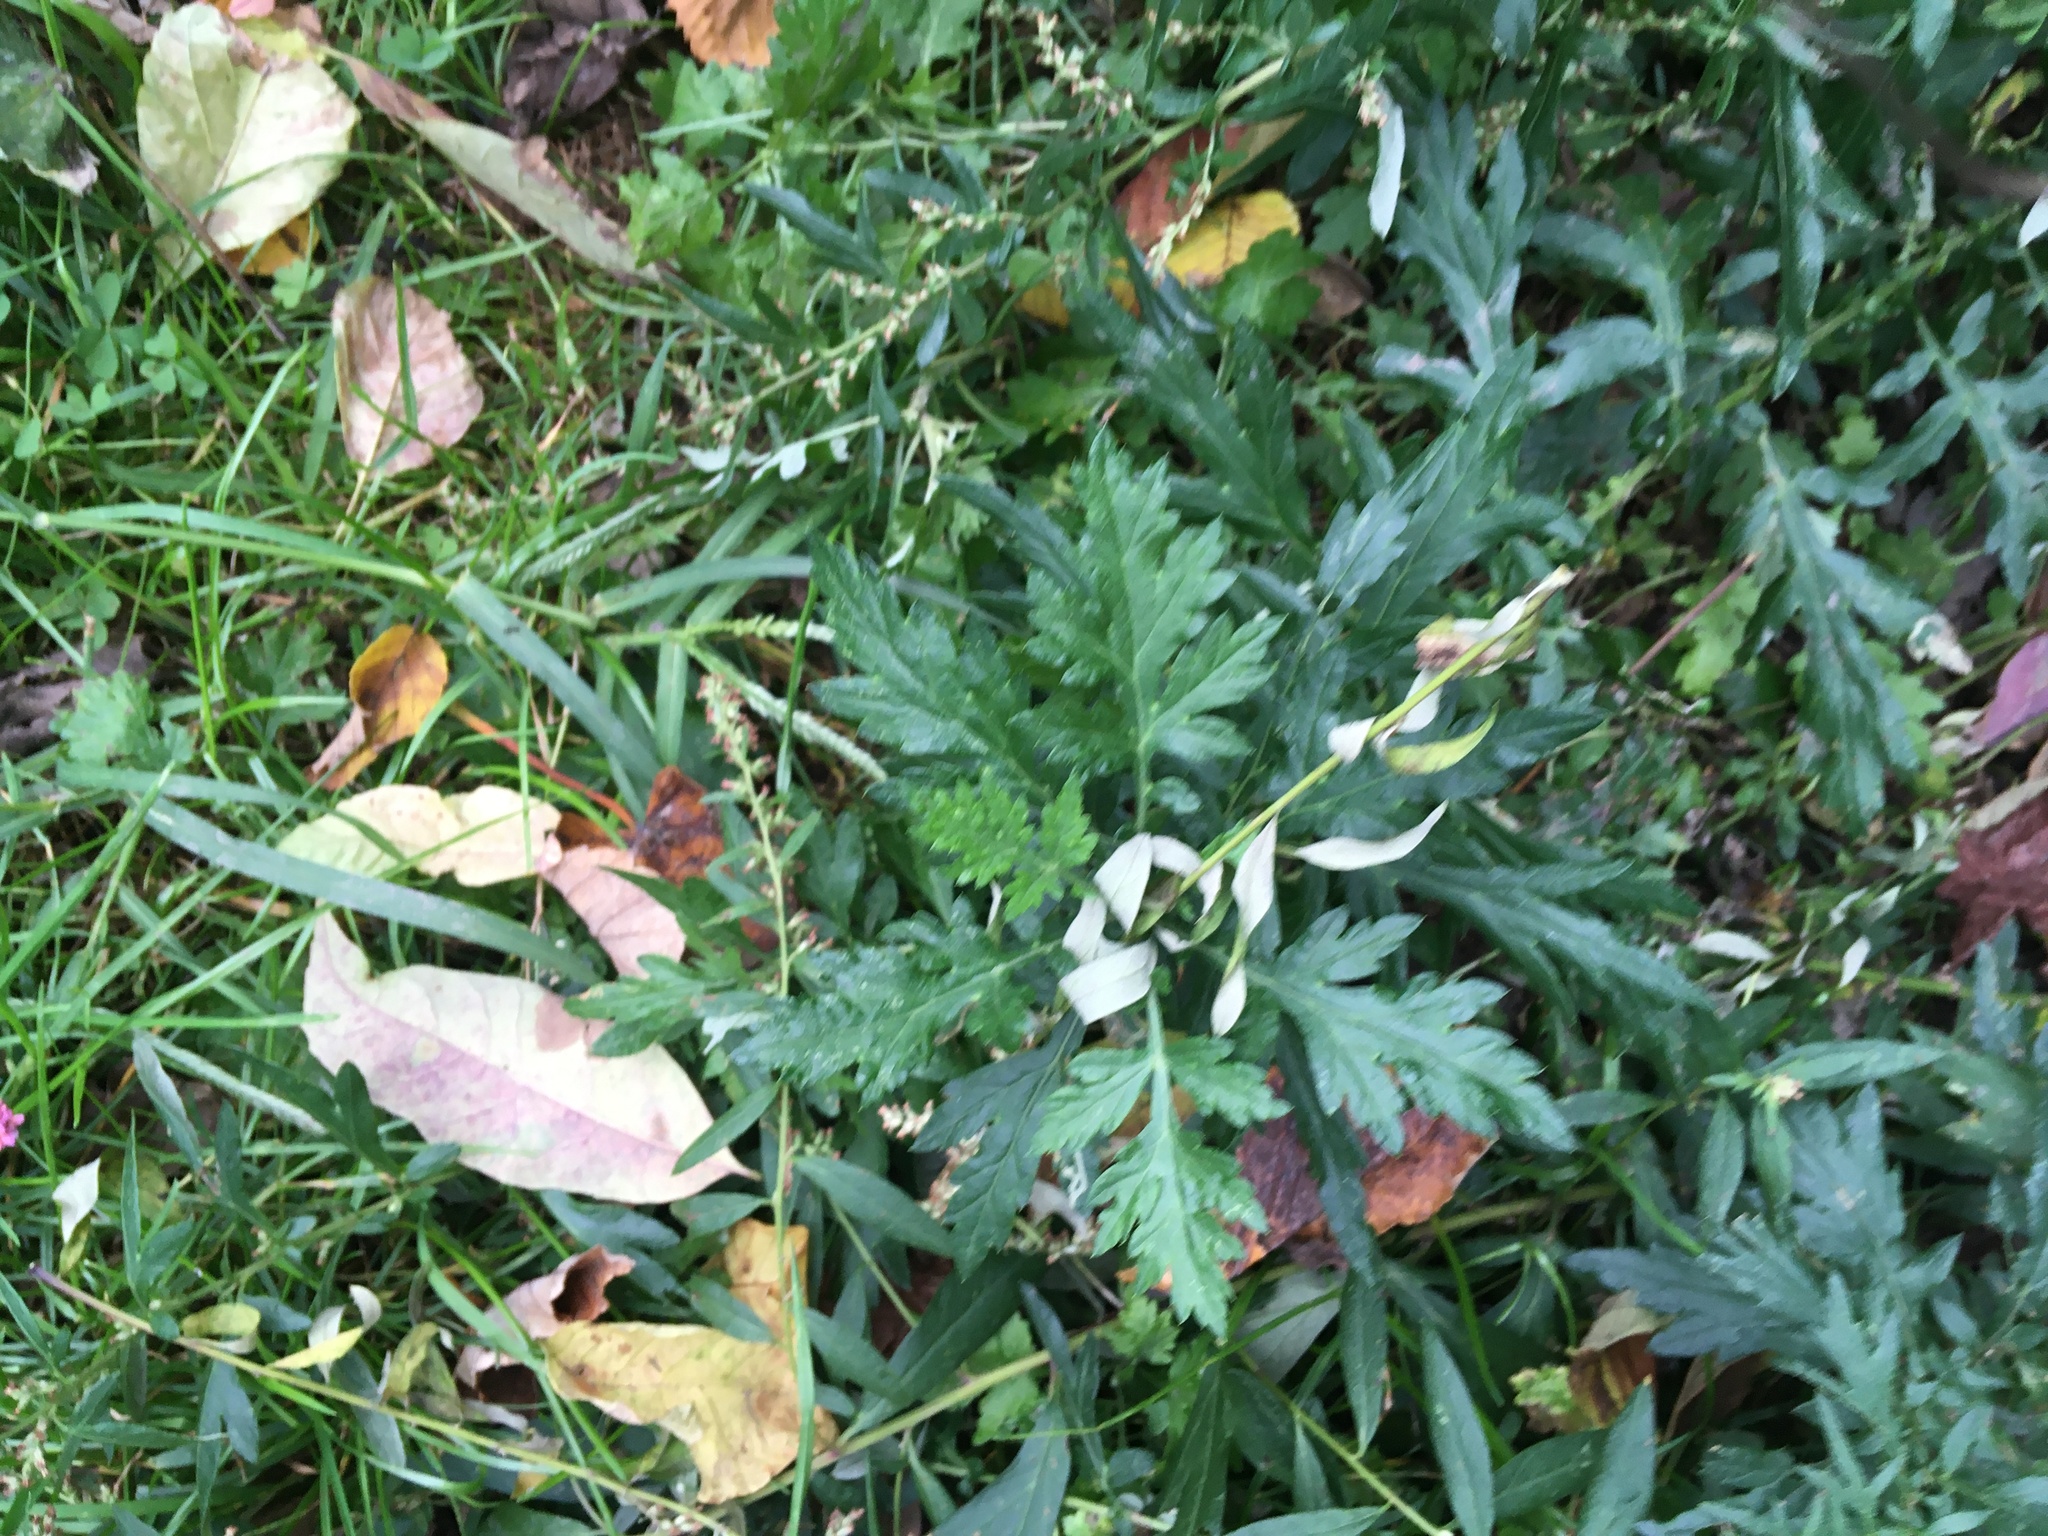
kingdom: Plantae
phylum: Tracheophyta
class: Magnoliopsida
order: Asterales
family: Asteraceae
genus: Artemisia
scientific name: Artemisia vulgaris
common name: Mugwort
